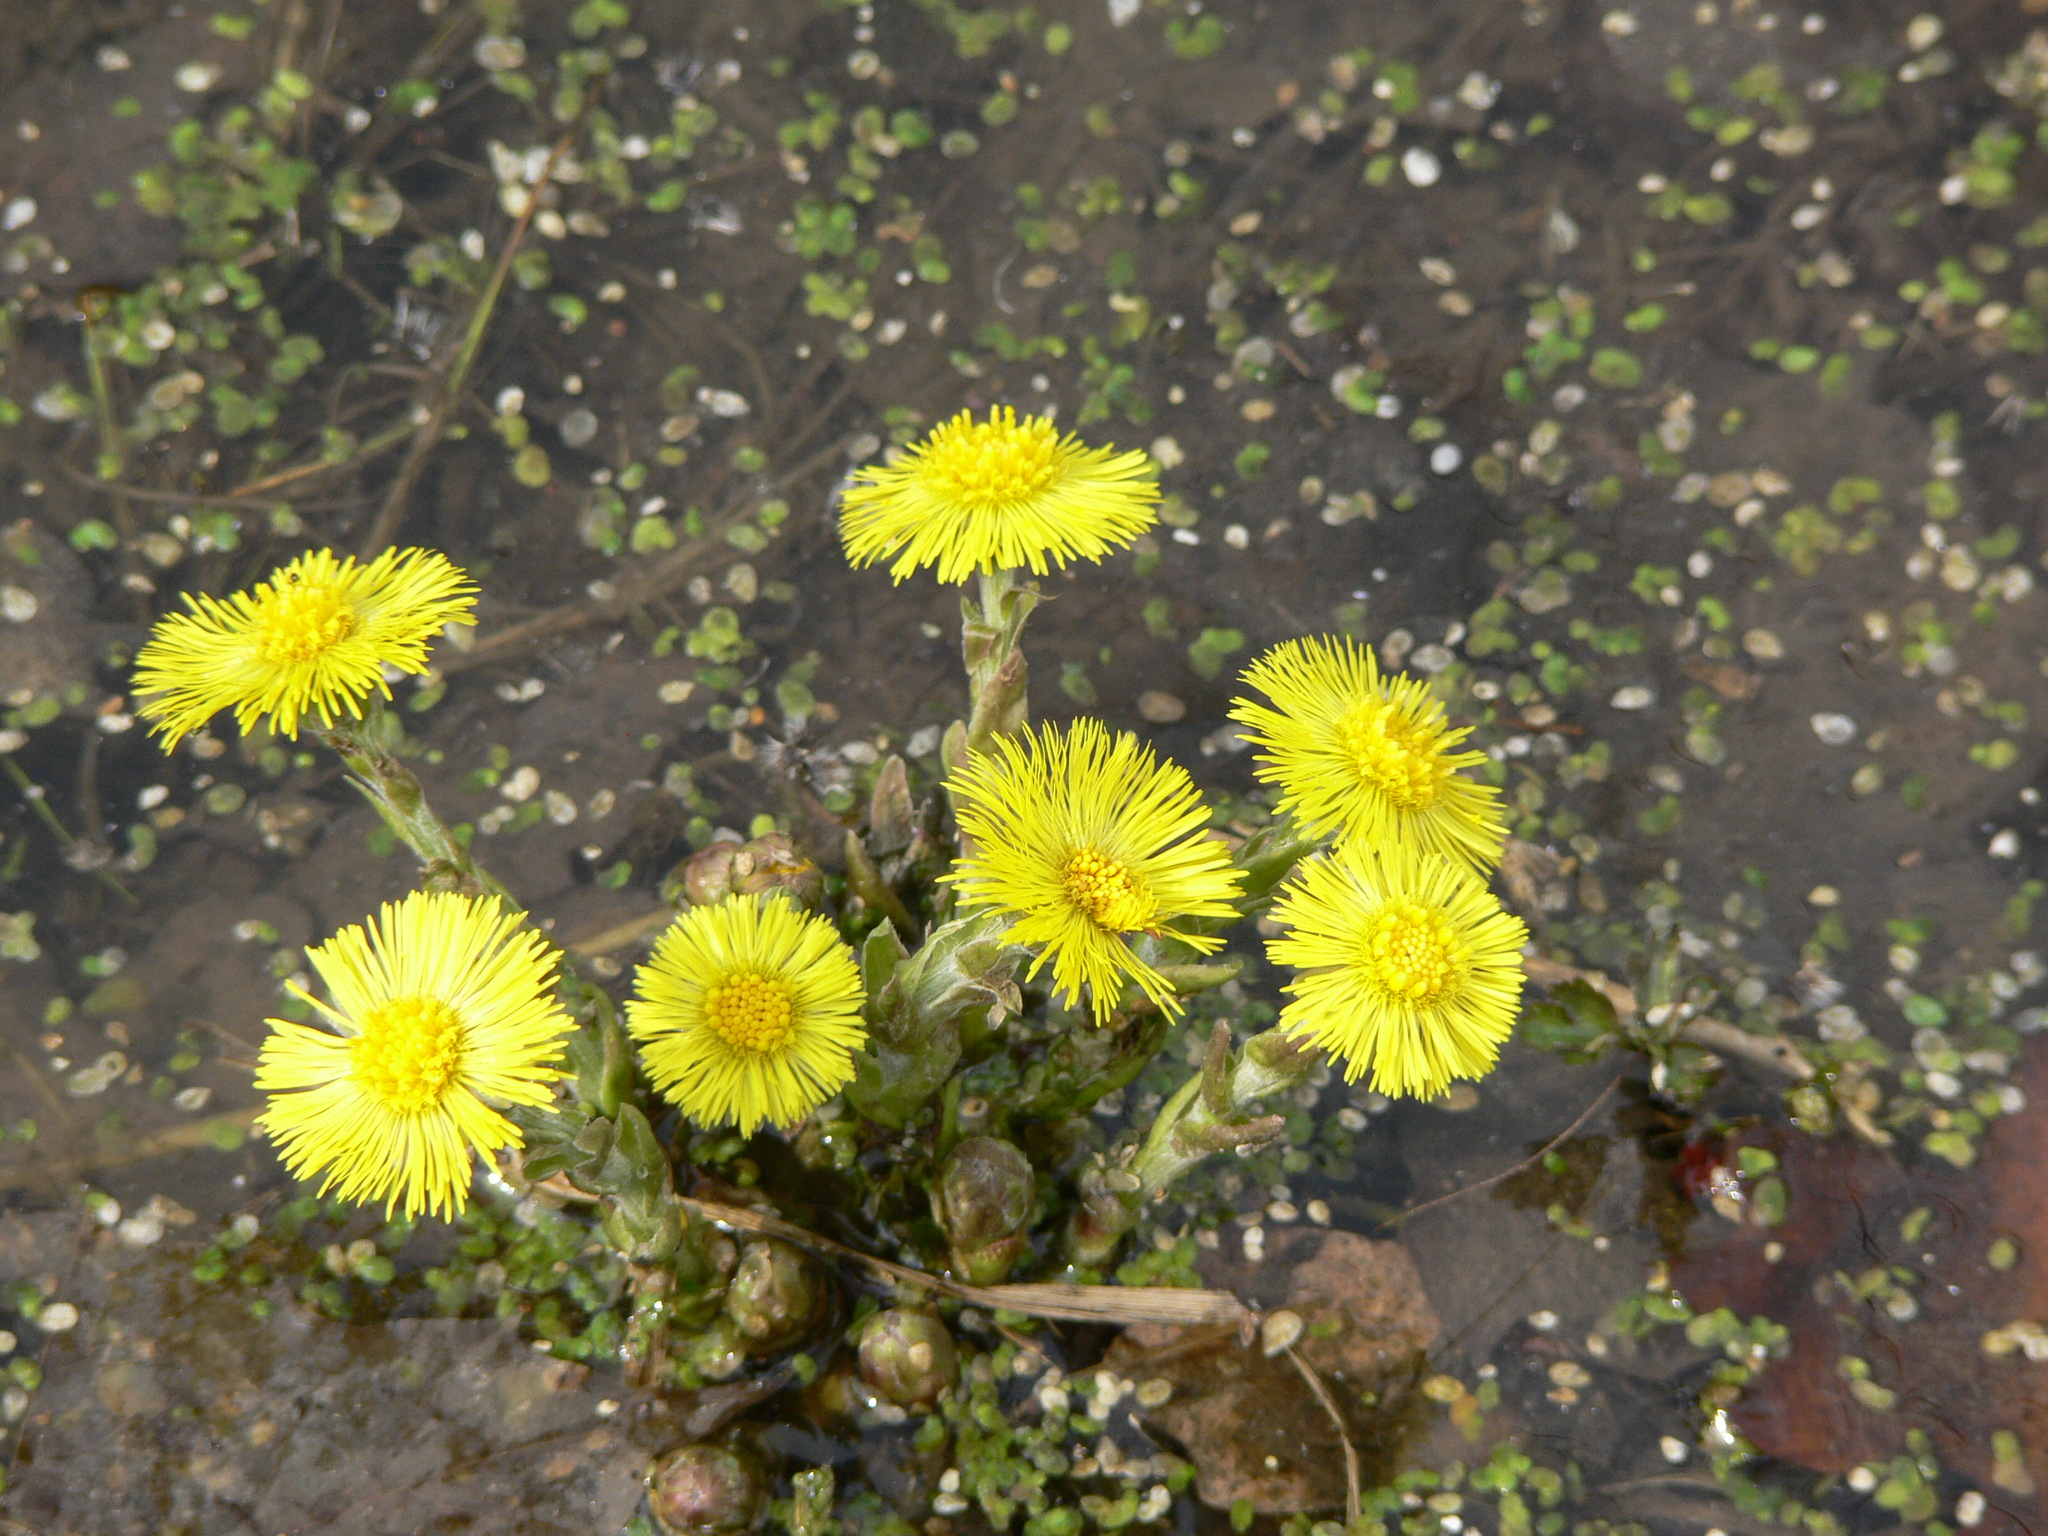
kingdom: Plantae
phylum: Tracheophyta
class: Magnoliopsida
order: Asterales
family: Asteraceae
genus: Tussilago
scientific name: Tussilago farfara
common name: Coltsfoot
